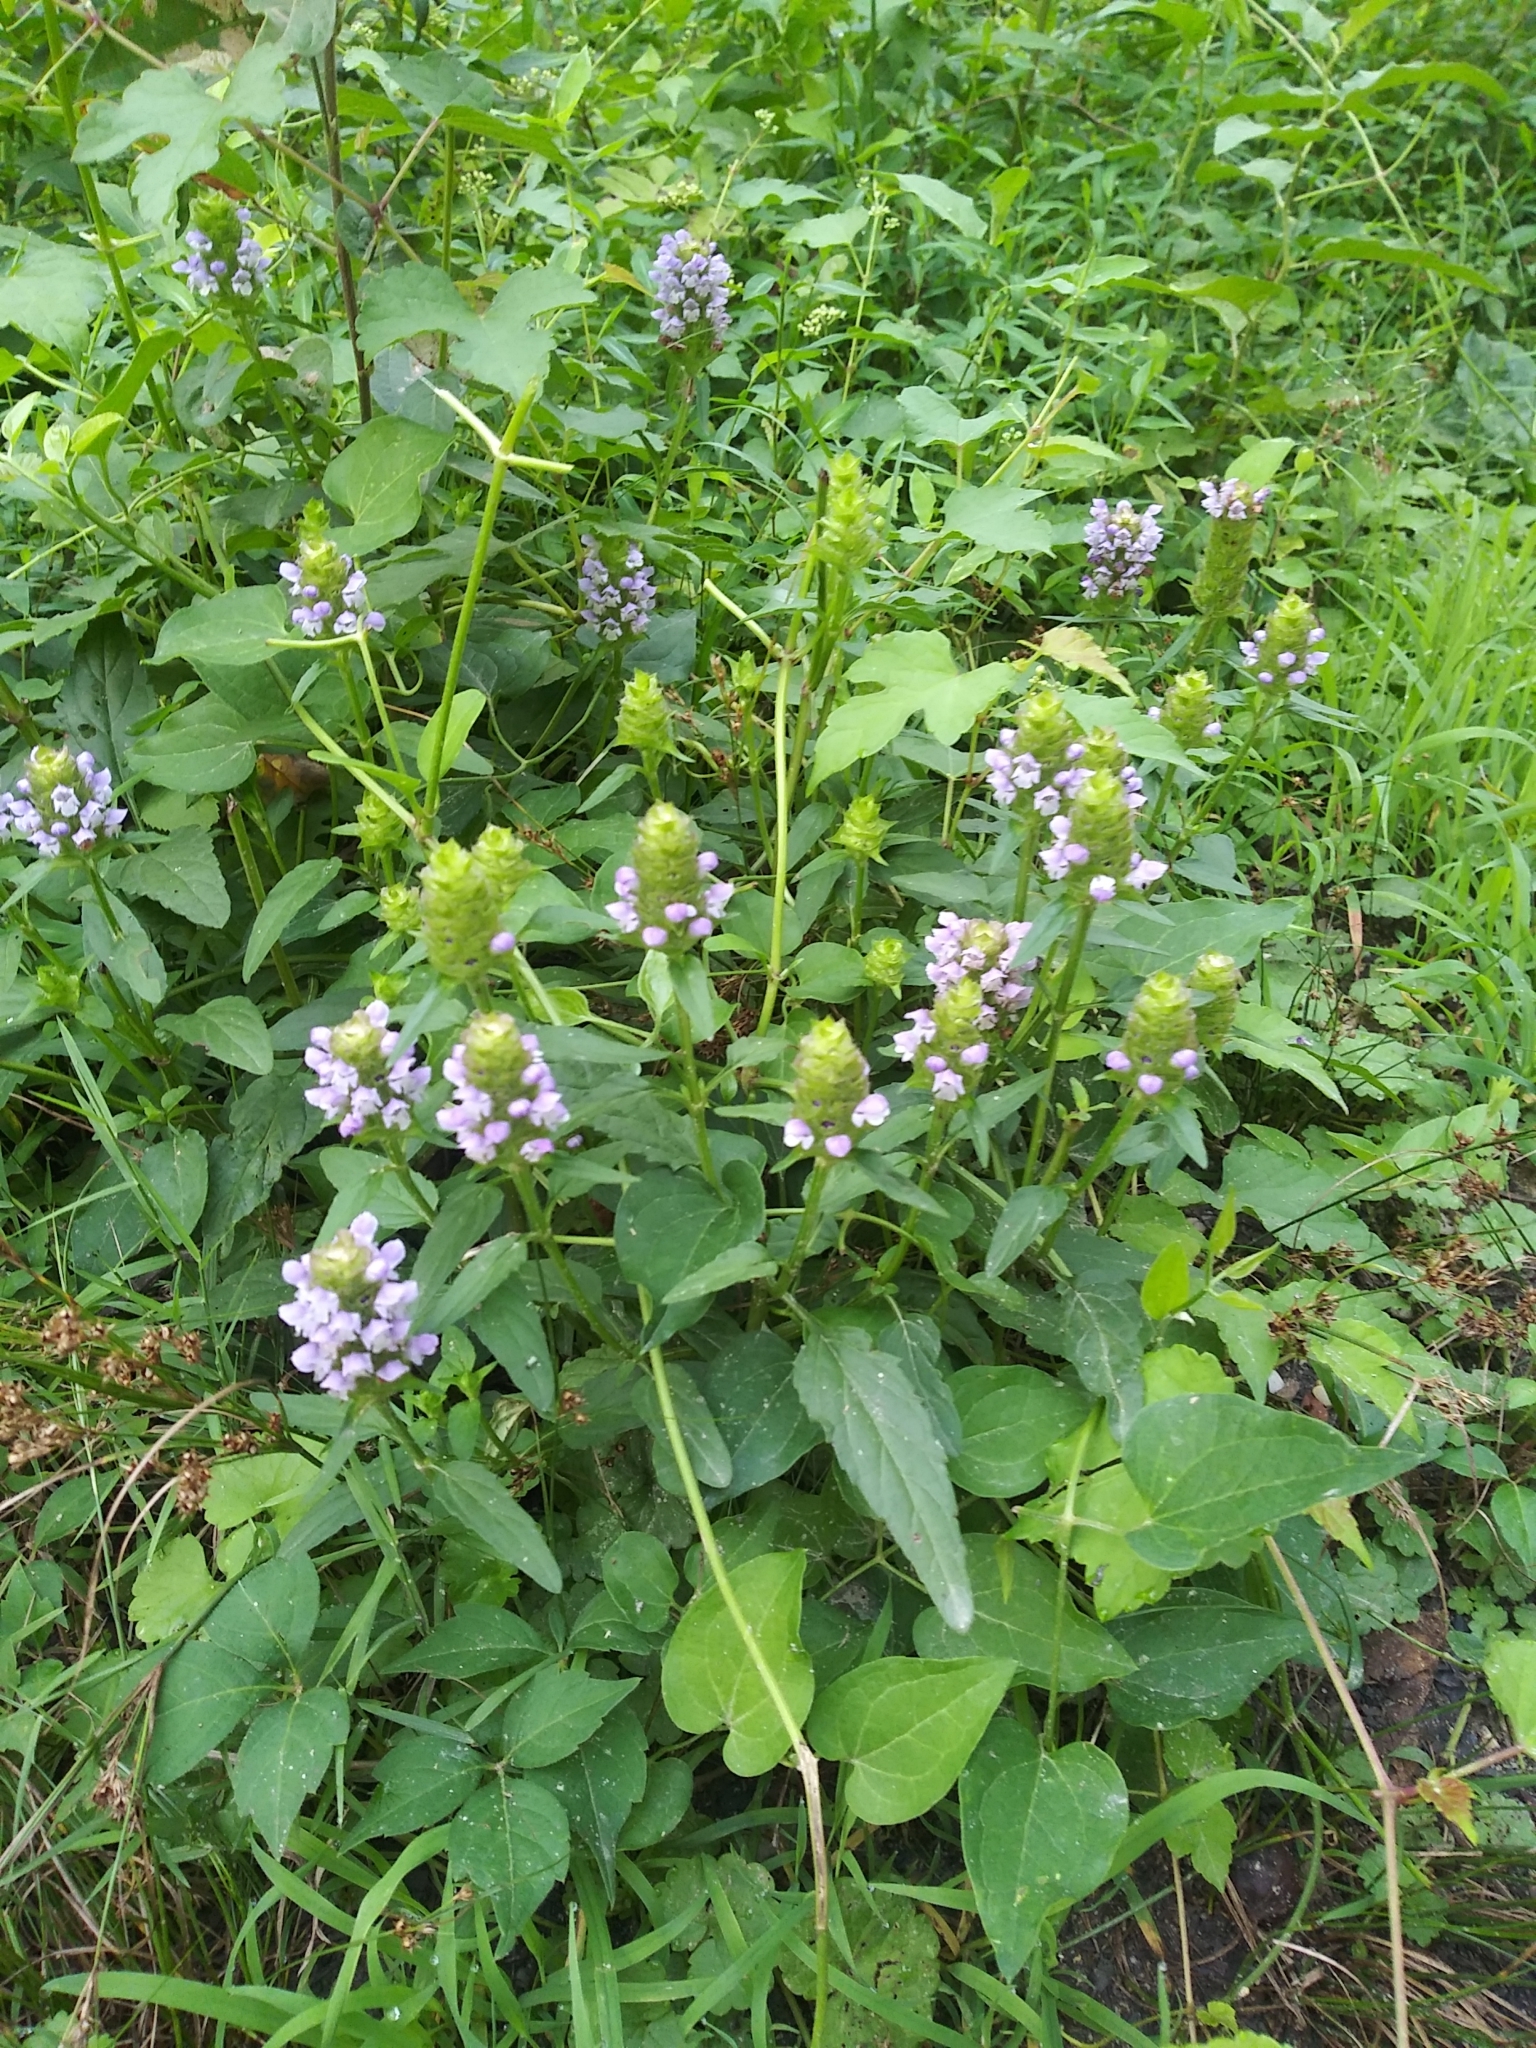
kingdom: Plantae
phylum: Tracheophyta
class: Magnoliopsida
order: Lamiales
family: Lamiaceae
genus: Prunella
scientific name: Prunella vulgaris
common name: Heal-all
